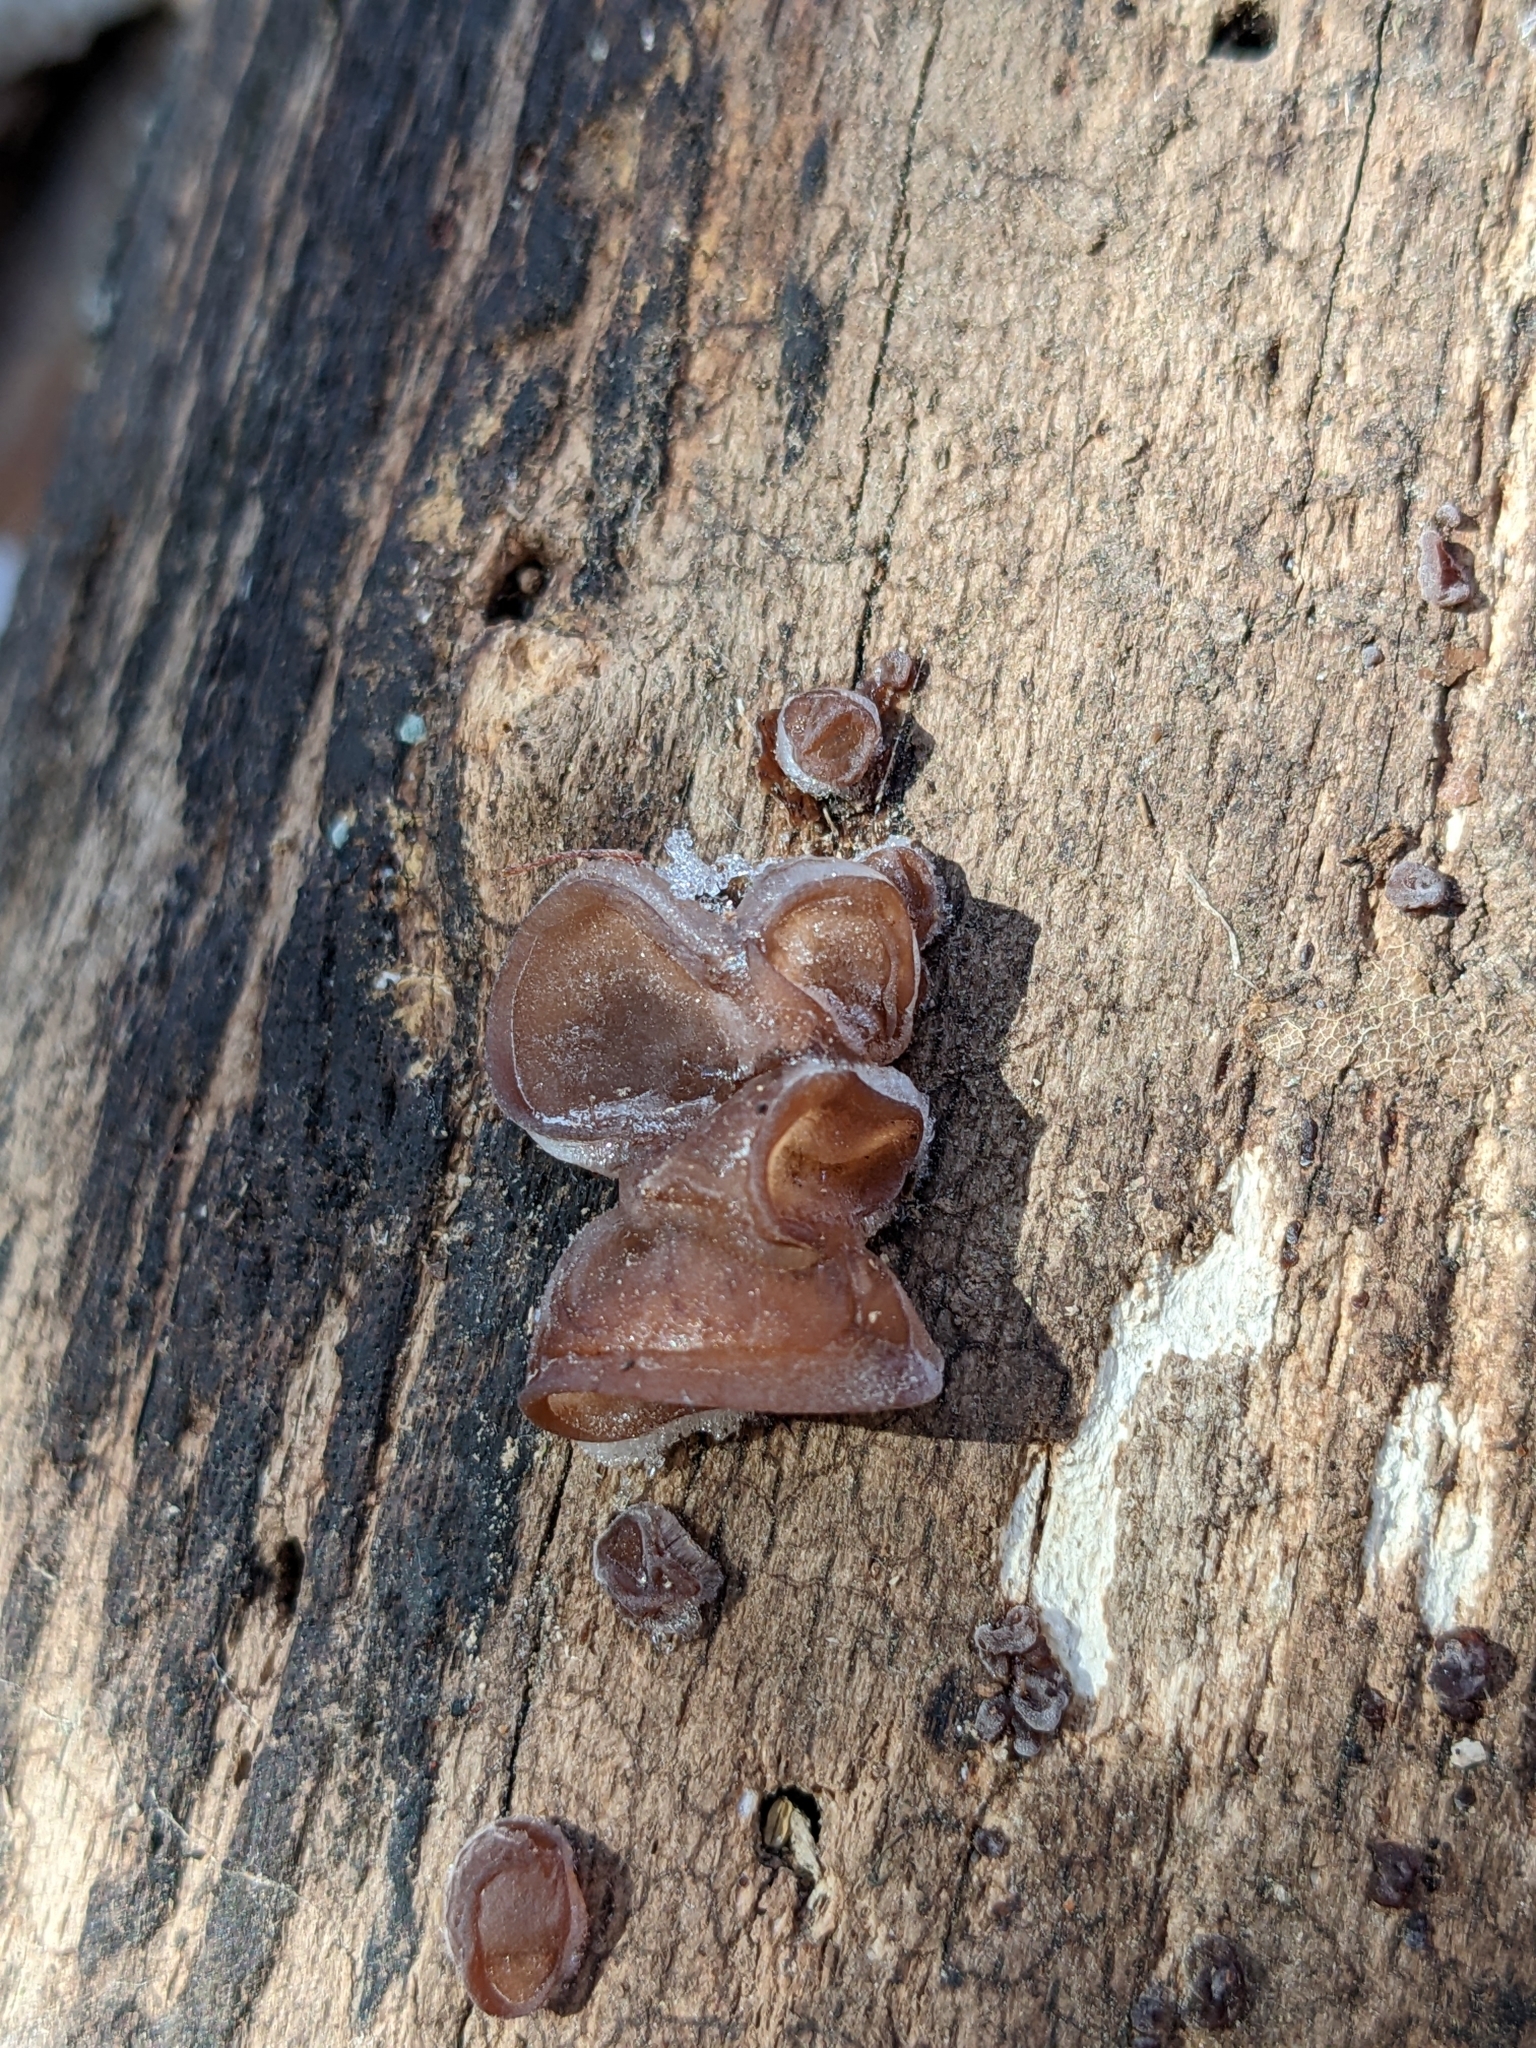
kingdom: Fungi
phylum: Basidiomycota
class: Agaricomycetes
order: Auriculariales
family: Auriculariaceae
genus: Auricularia
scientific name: Auricularia auricula-judae
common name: Jelly ear
